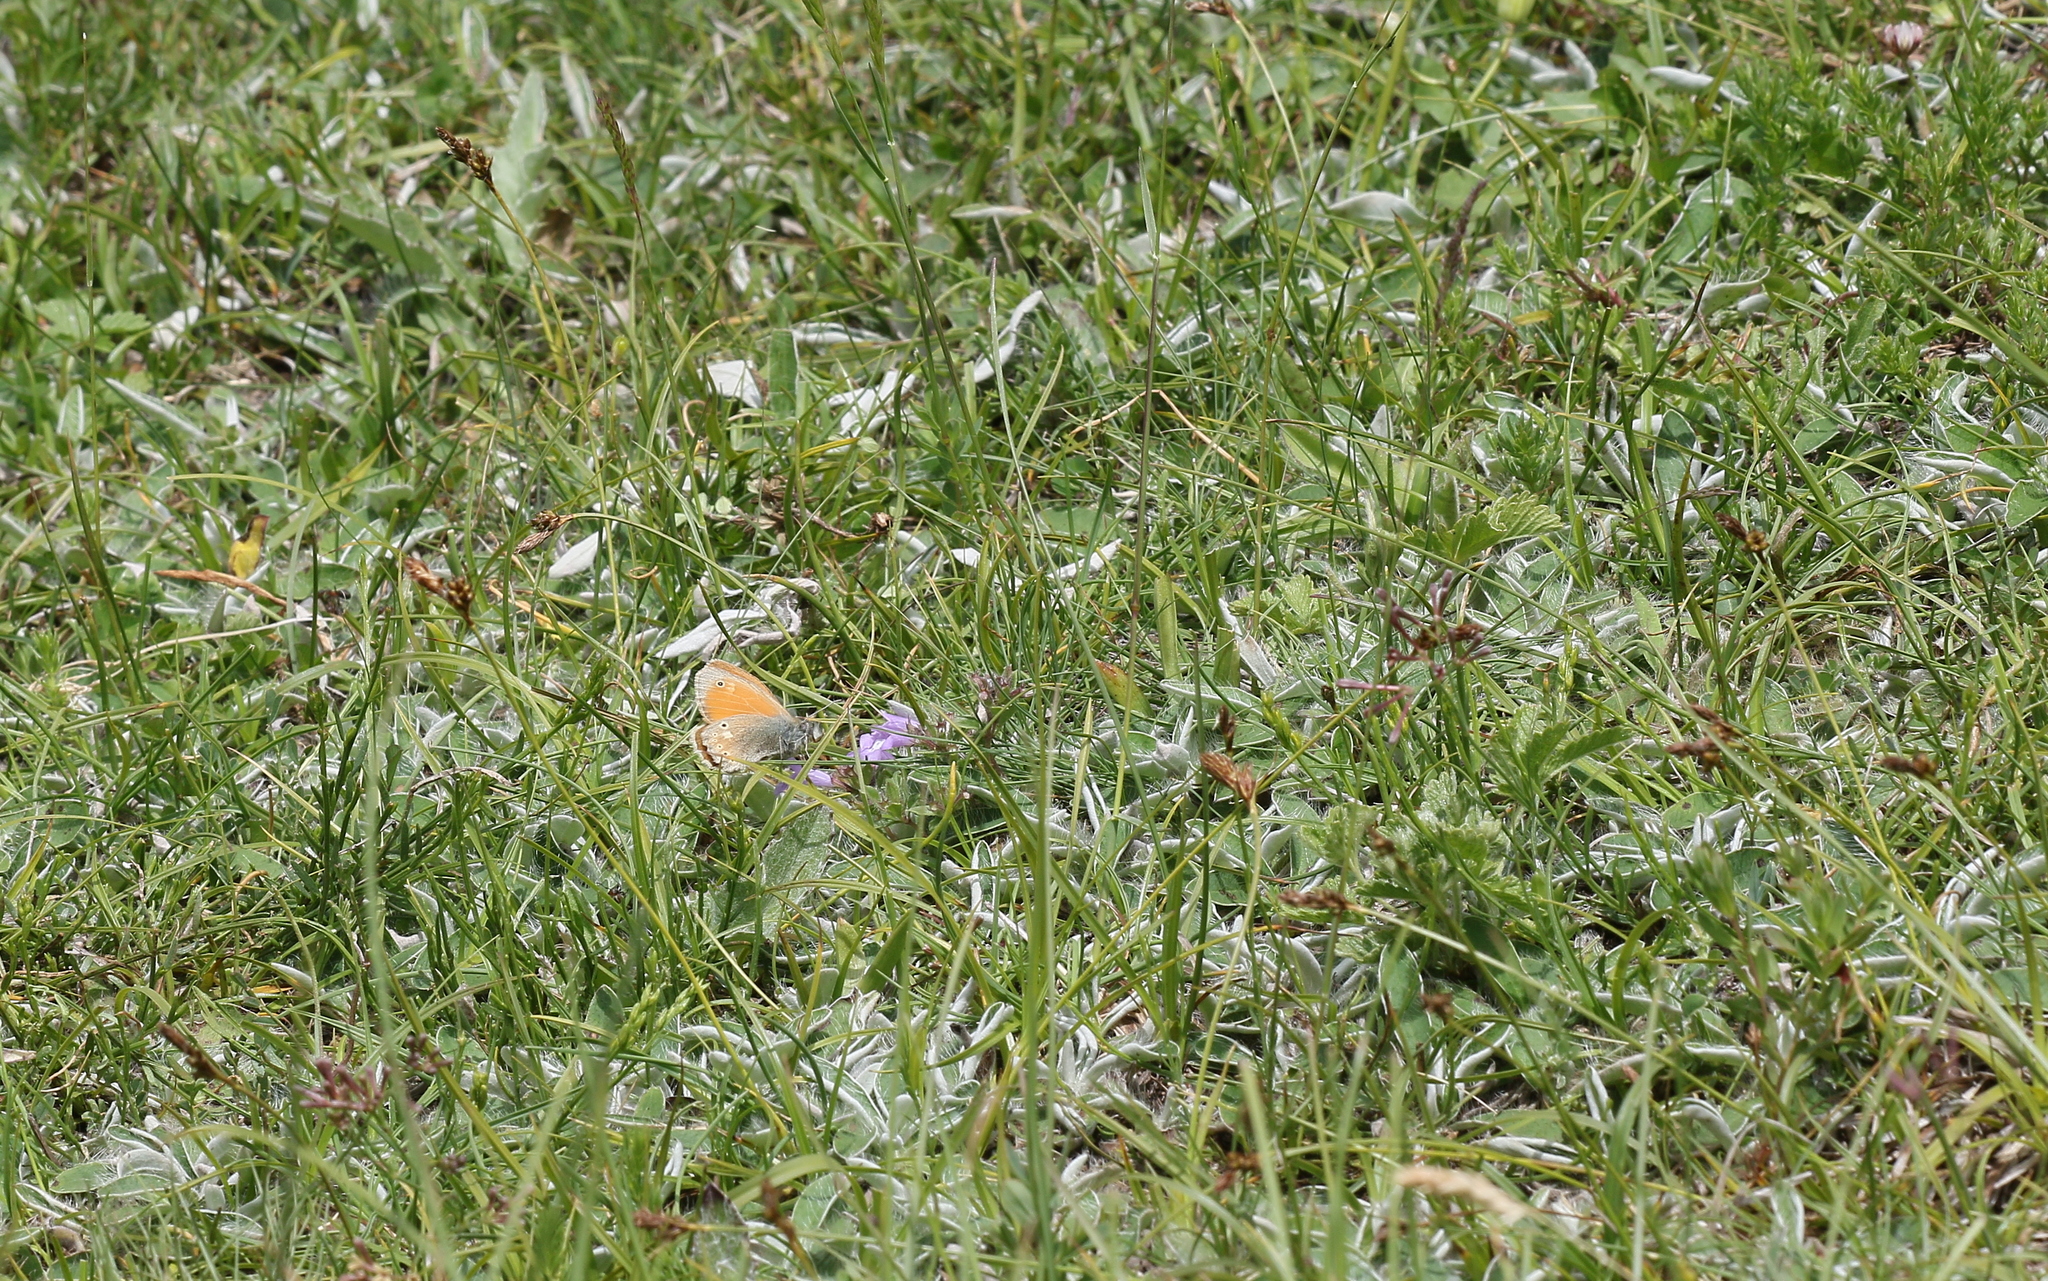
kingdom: Animalia
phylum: Arthropoda
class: Insecta
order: Lepidoptera
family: Nymphalidae
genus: Coenonympha
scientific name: Coenonympha tullia
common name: Large heath
